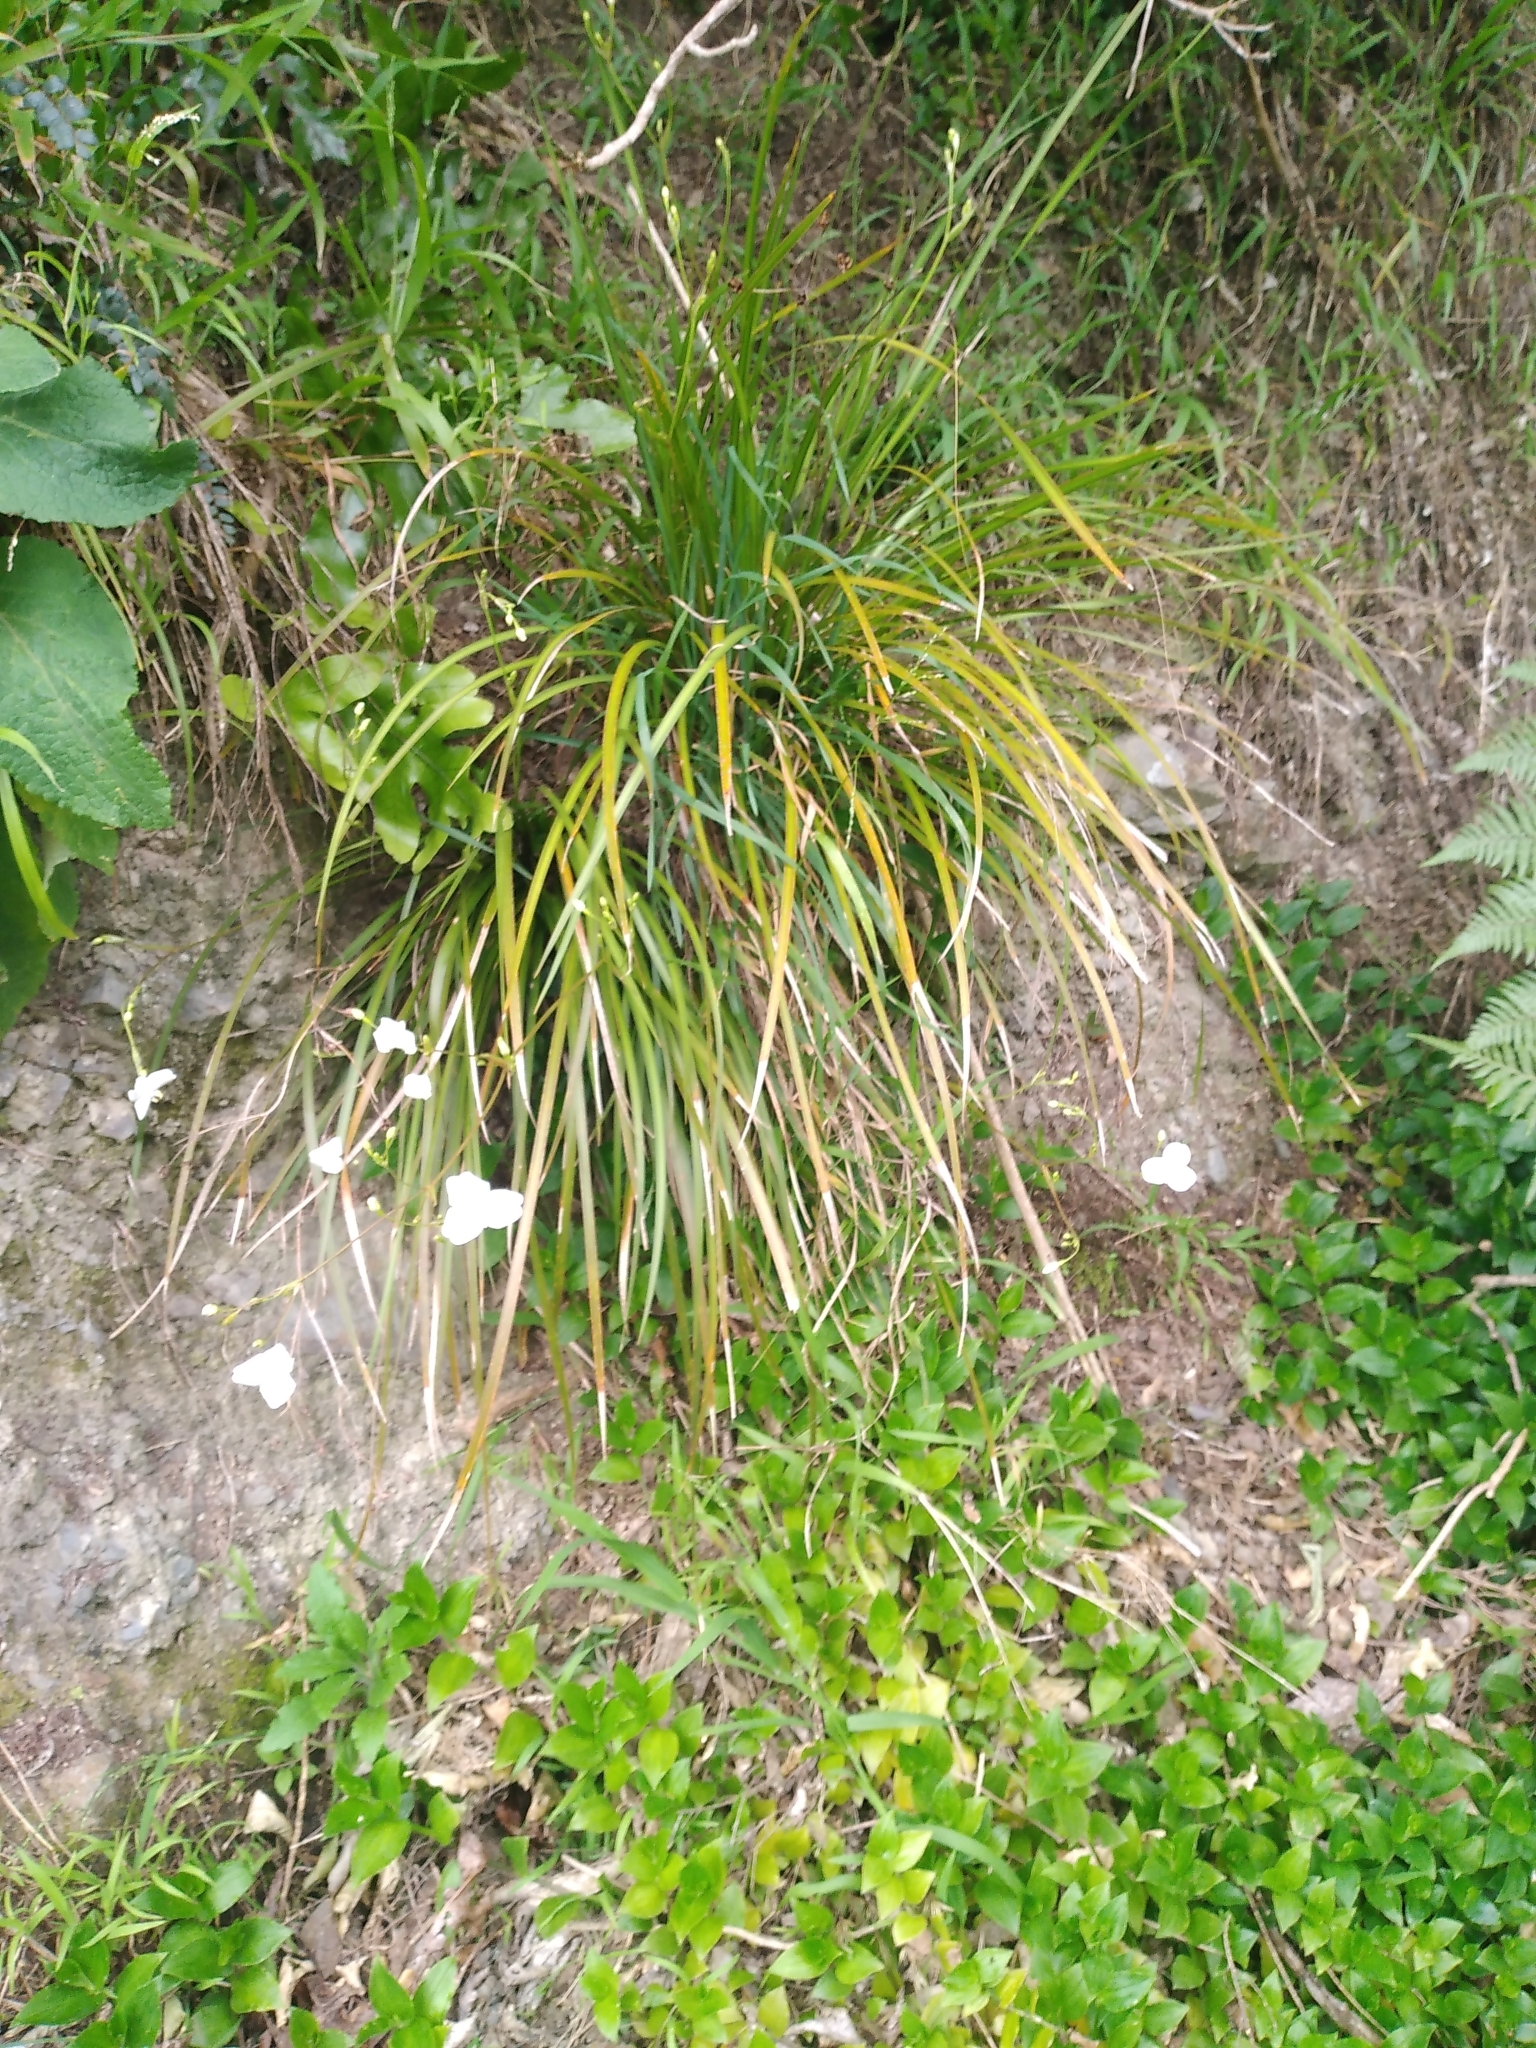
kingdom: Plantae
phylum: Tracheophyta
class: Liliopsida
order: Asparagales
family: Iridaceae
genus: Libertia
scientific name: Libertia grandiflora
